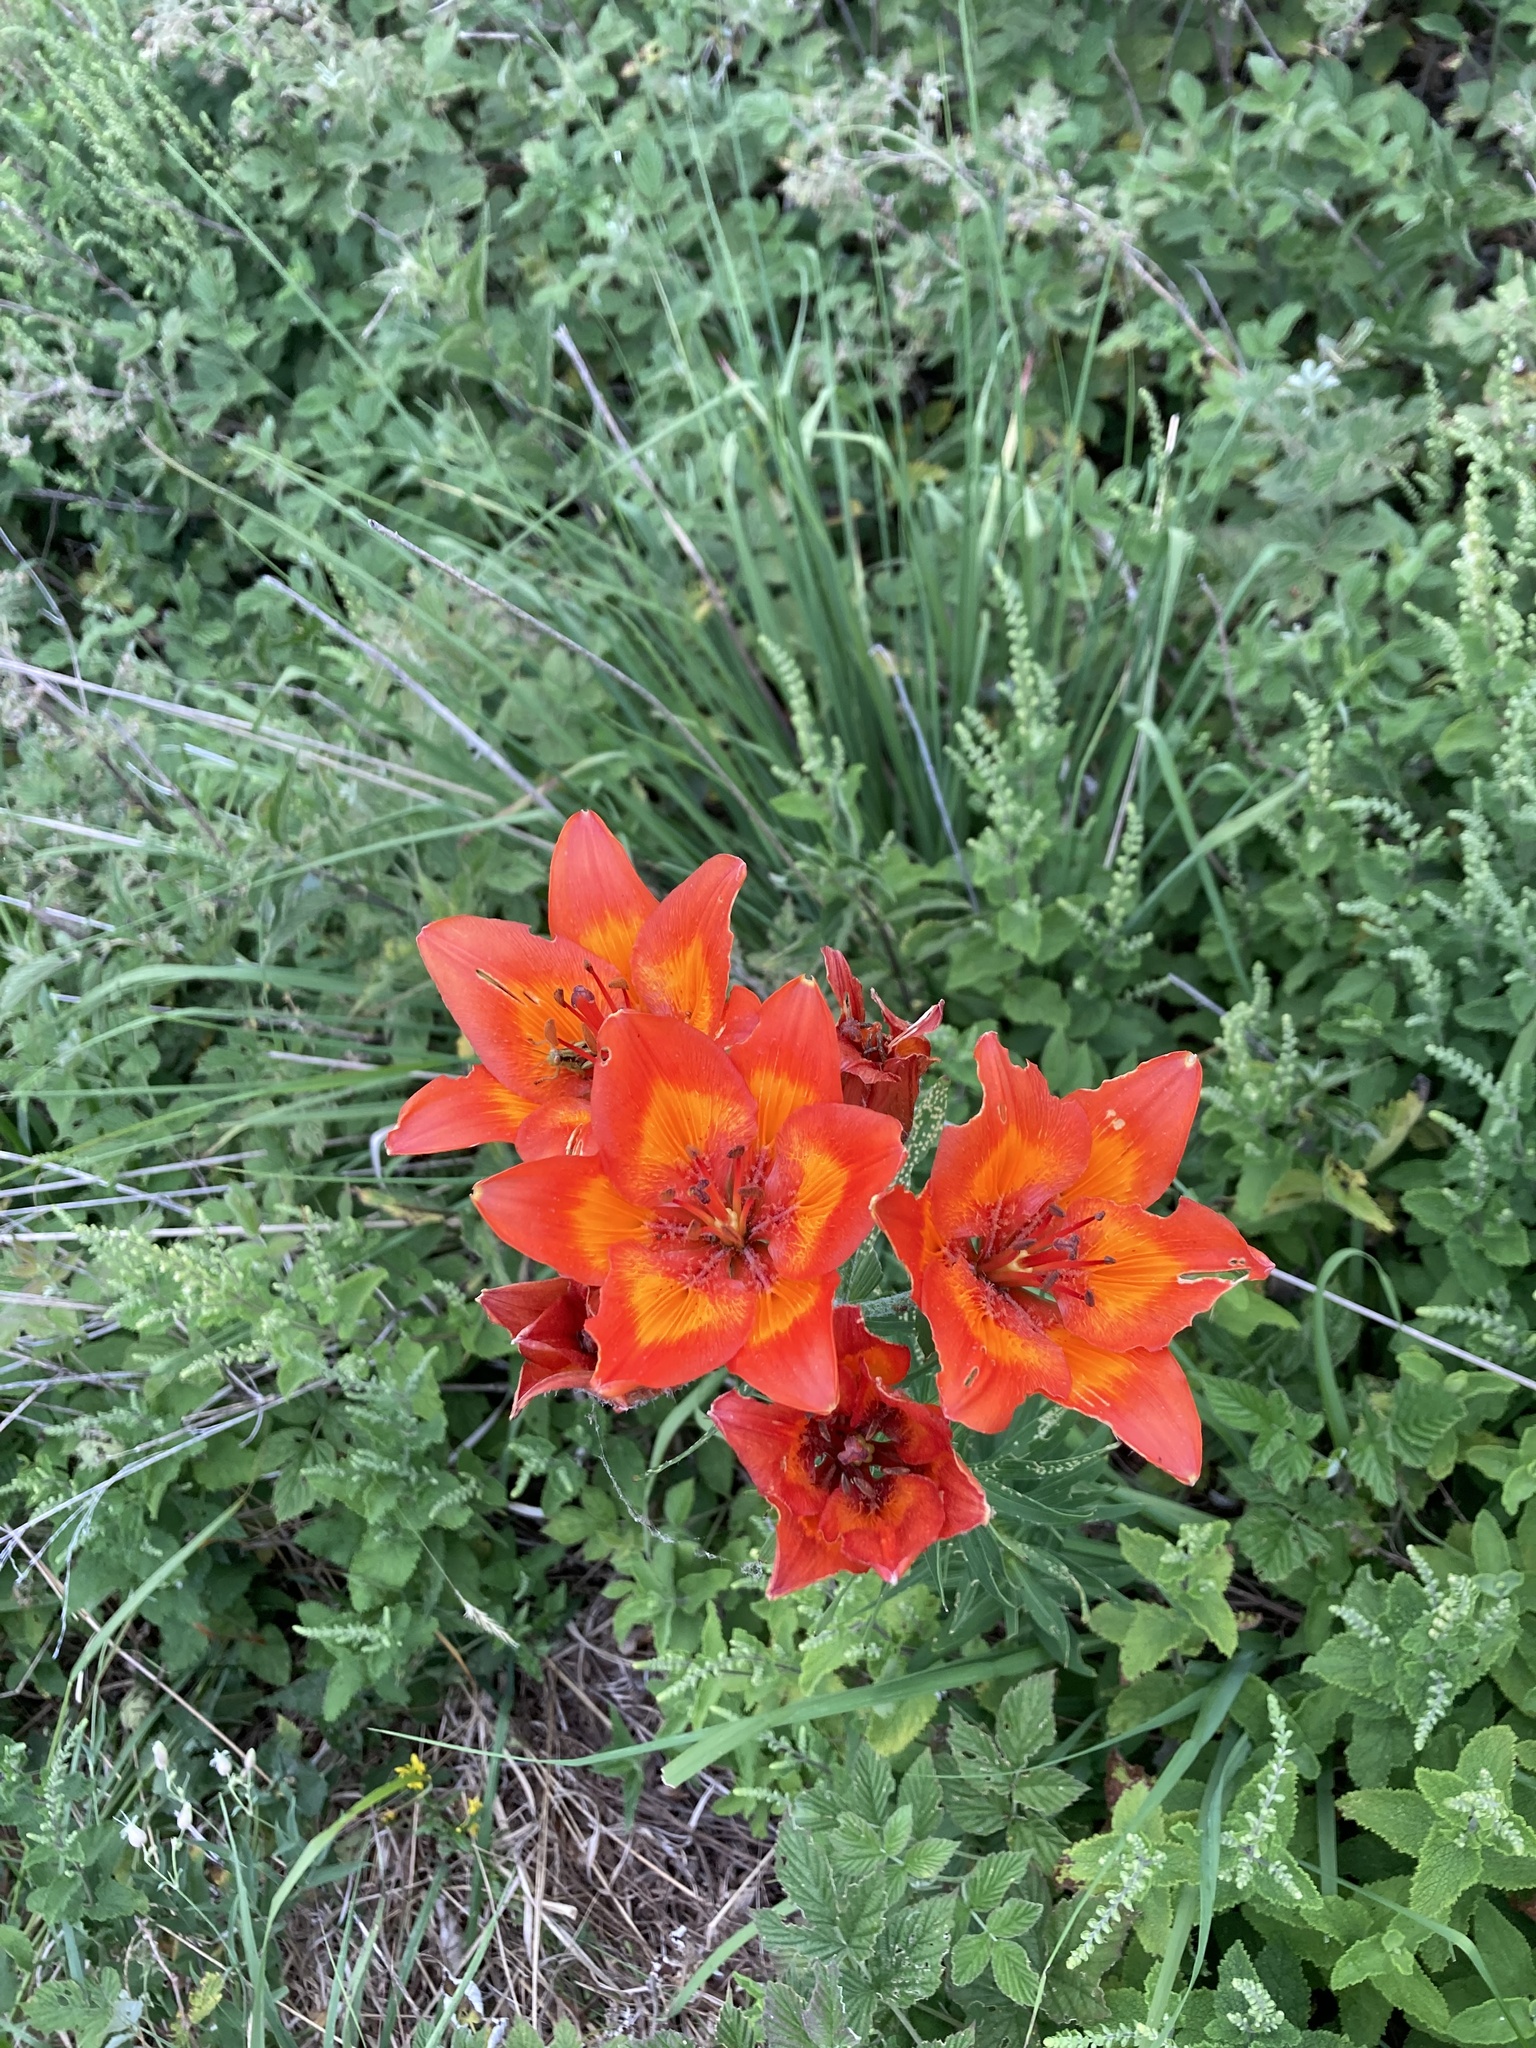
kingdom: Plantae
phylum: Tracheophyta
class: Liliopsida
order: Liliales
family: Liliaceae
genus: Lilium
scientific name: Lilium bulbiferum
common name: Orange lily
